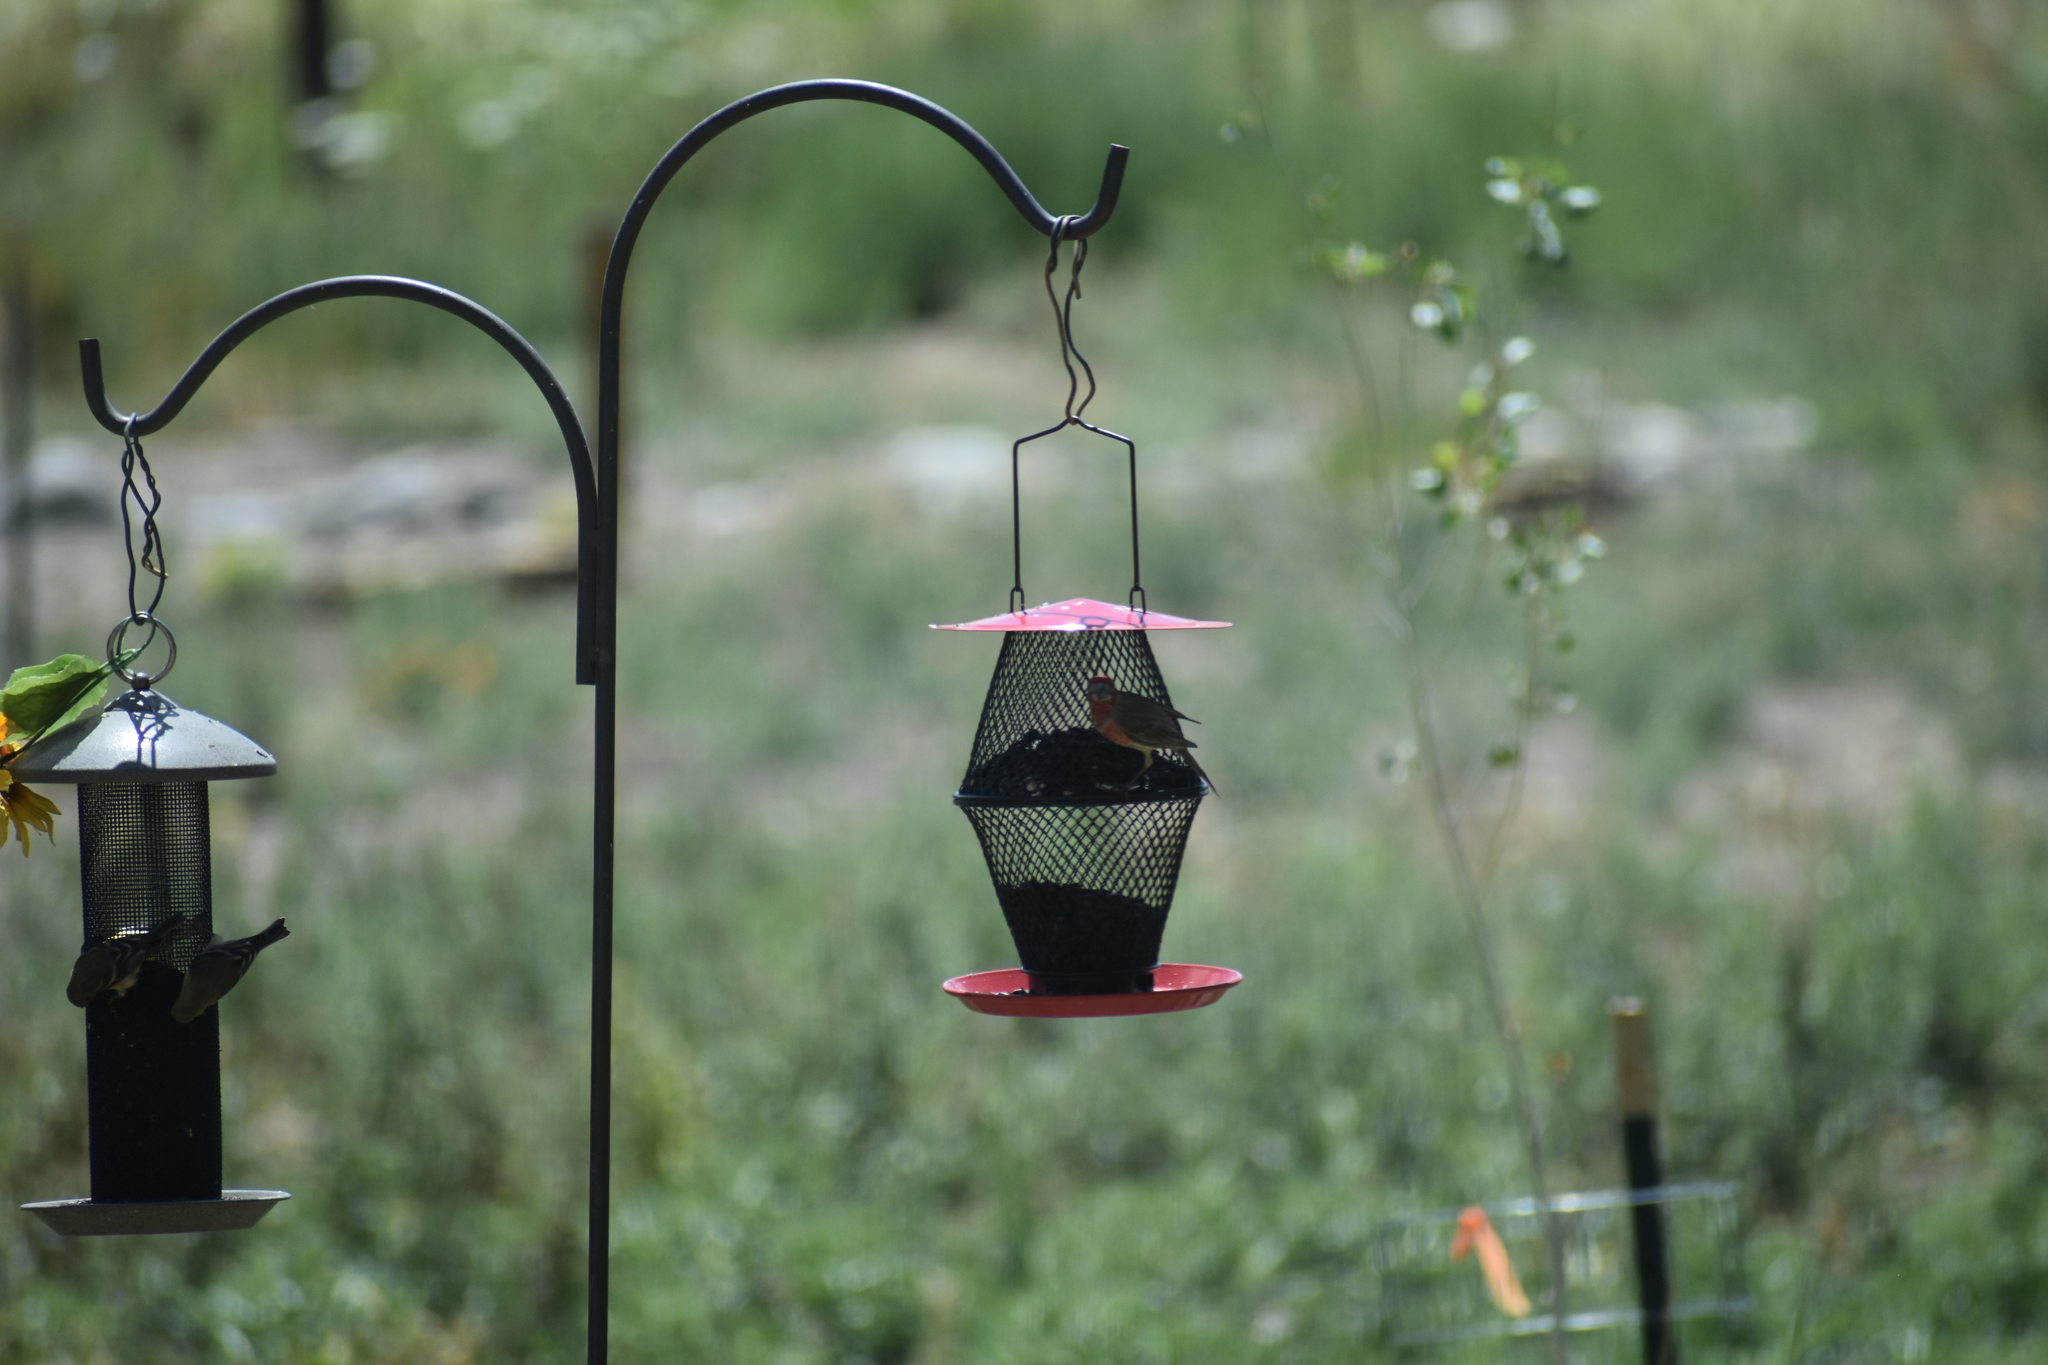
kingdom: Animalia
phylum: Chordata
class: Aves
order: Passeriformes
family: Fringillidae
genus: Haemorhous
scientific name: Haemorhous mexicanus
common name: House finch
